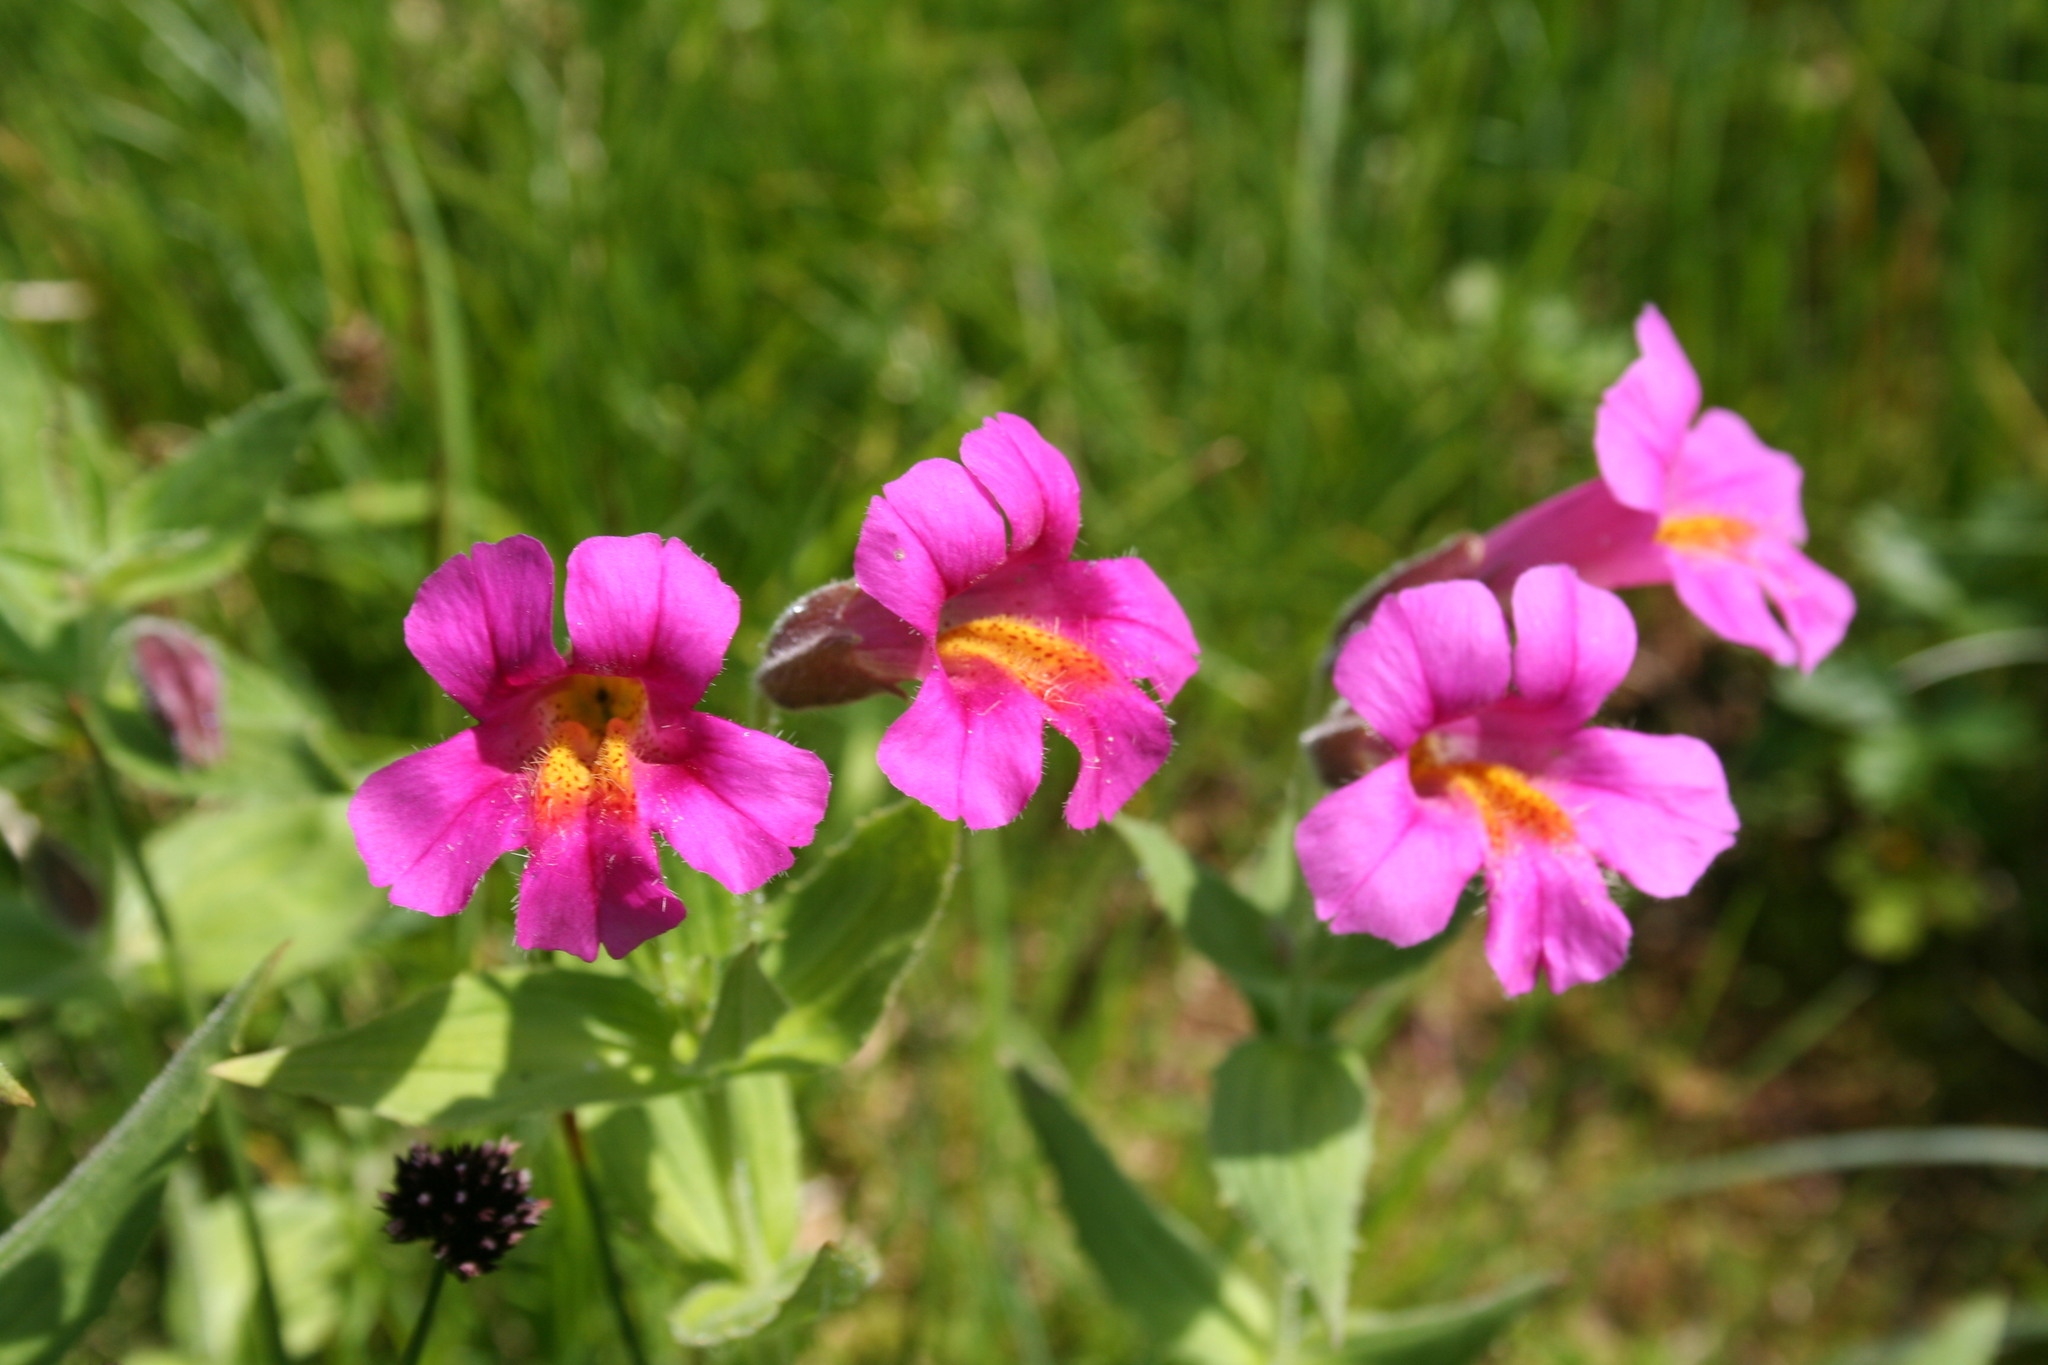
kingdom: Plantae
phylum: Tracheophyta
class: Magnoliopsida
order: Lamiales
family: Phrymaceae
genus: Erythranthe
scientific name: Erythranthe lewisii
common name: Lewis's monkey-flower
